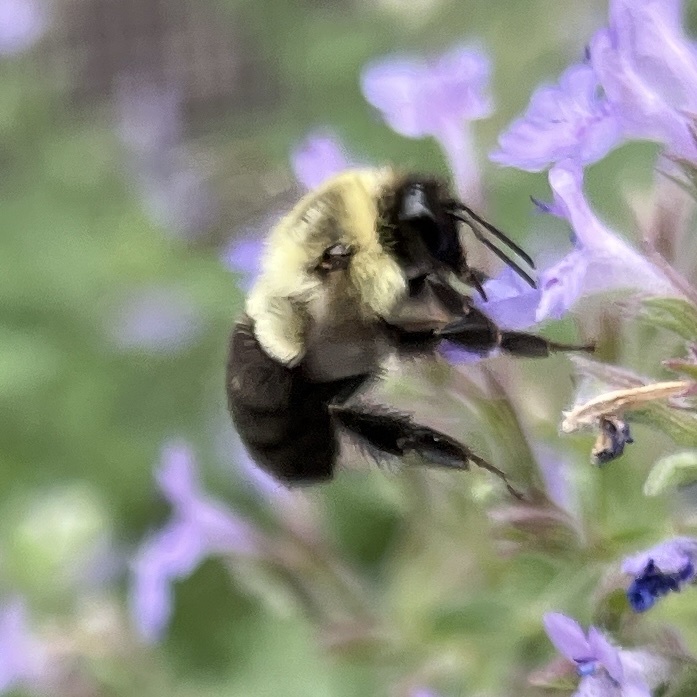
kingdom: Animalia
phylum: Arthropoda
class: Insecta
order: Hymenoptera
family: Apidae
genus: Bombus
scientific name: Bombus impatiens
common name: Common eastern bumble bee
